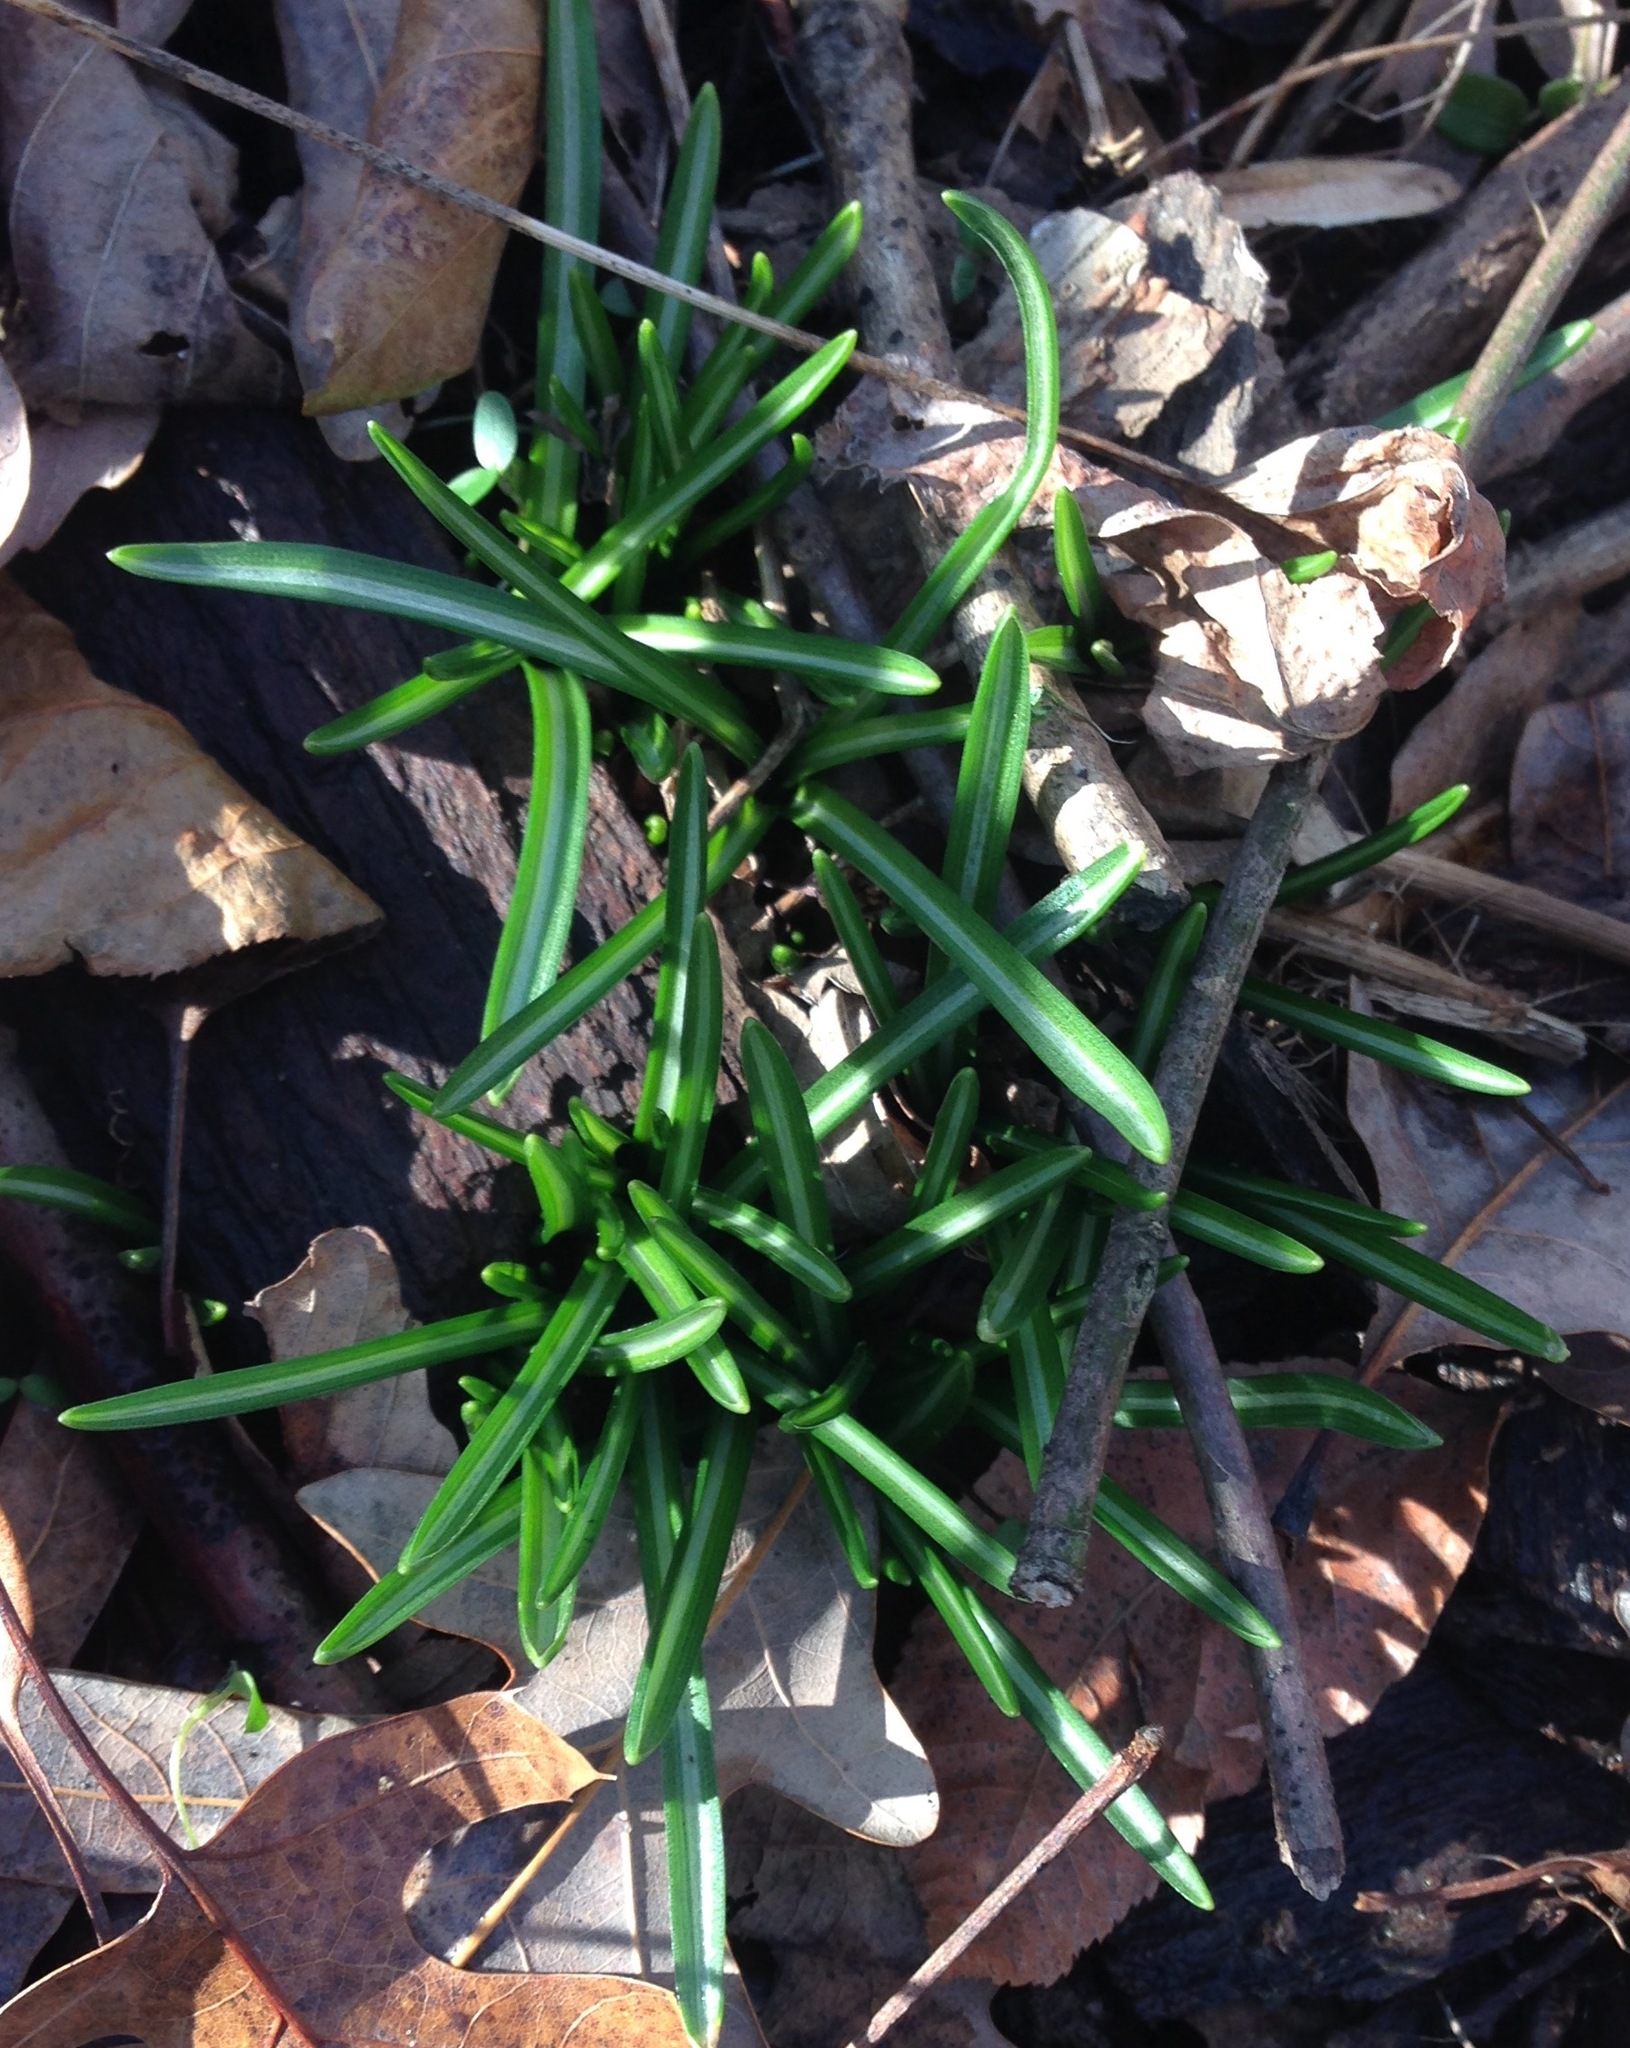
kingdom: Plantae
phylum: Tracheophyta
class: Liliopsida
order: Asparagales
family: Asparagaceae
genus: Ornithogalum
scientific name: Ornithogalum umbellatum
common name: Garden star-of-bethlehem
